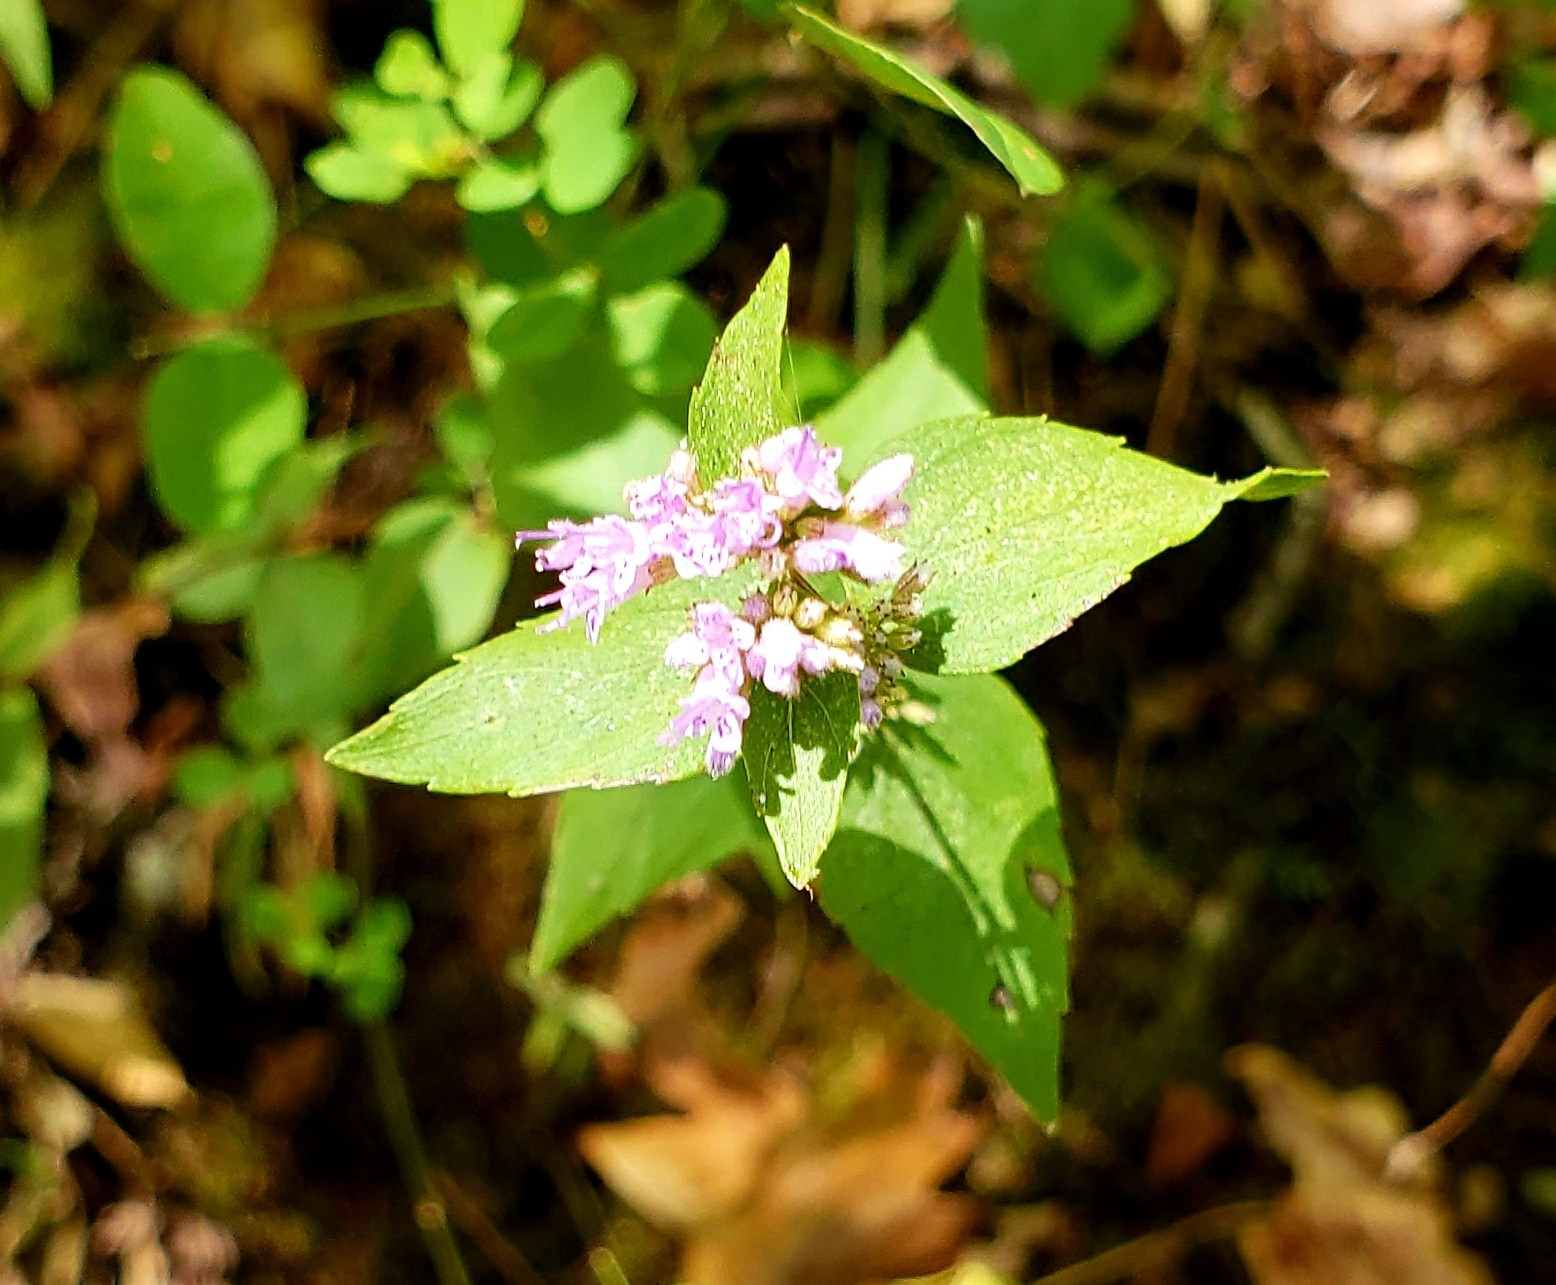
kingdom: Plantae
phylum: Tracheophyta
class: Magnoliopsida
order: Lamiales
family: Lamiaceae
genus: Cunila
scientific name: Cunila origanoides
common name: American dittany
